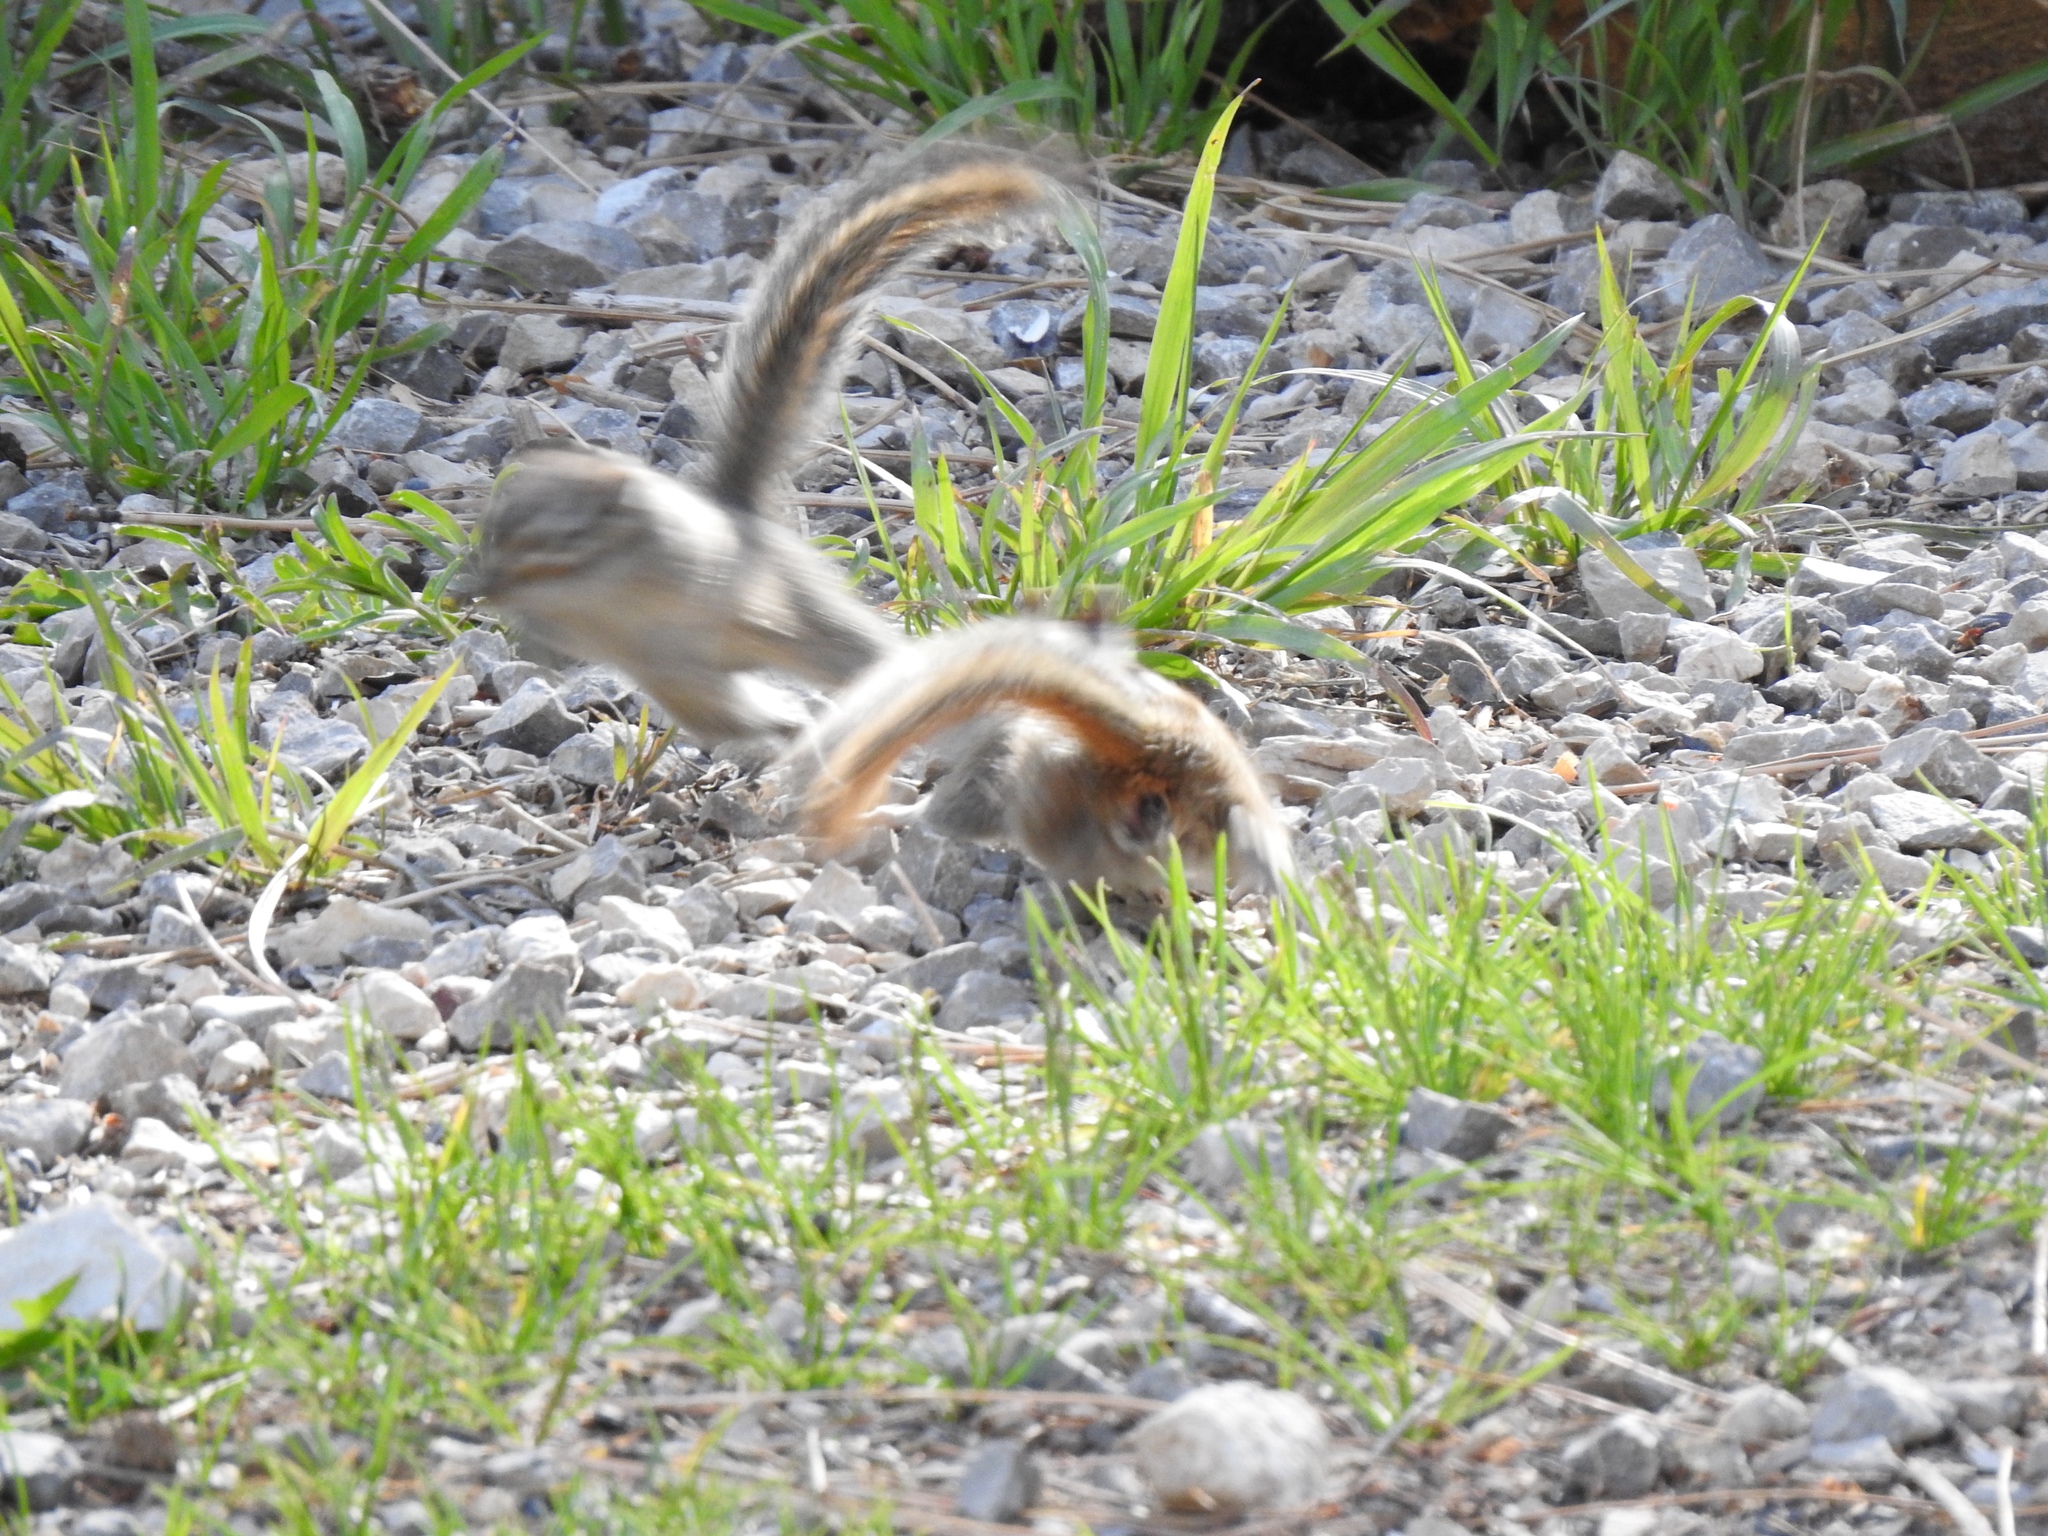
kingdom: Animalia
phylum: Chordata
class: Mammalia
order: Rodentia
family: Sciuridae
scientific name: Sciuridae
